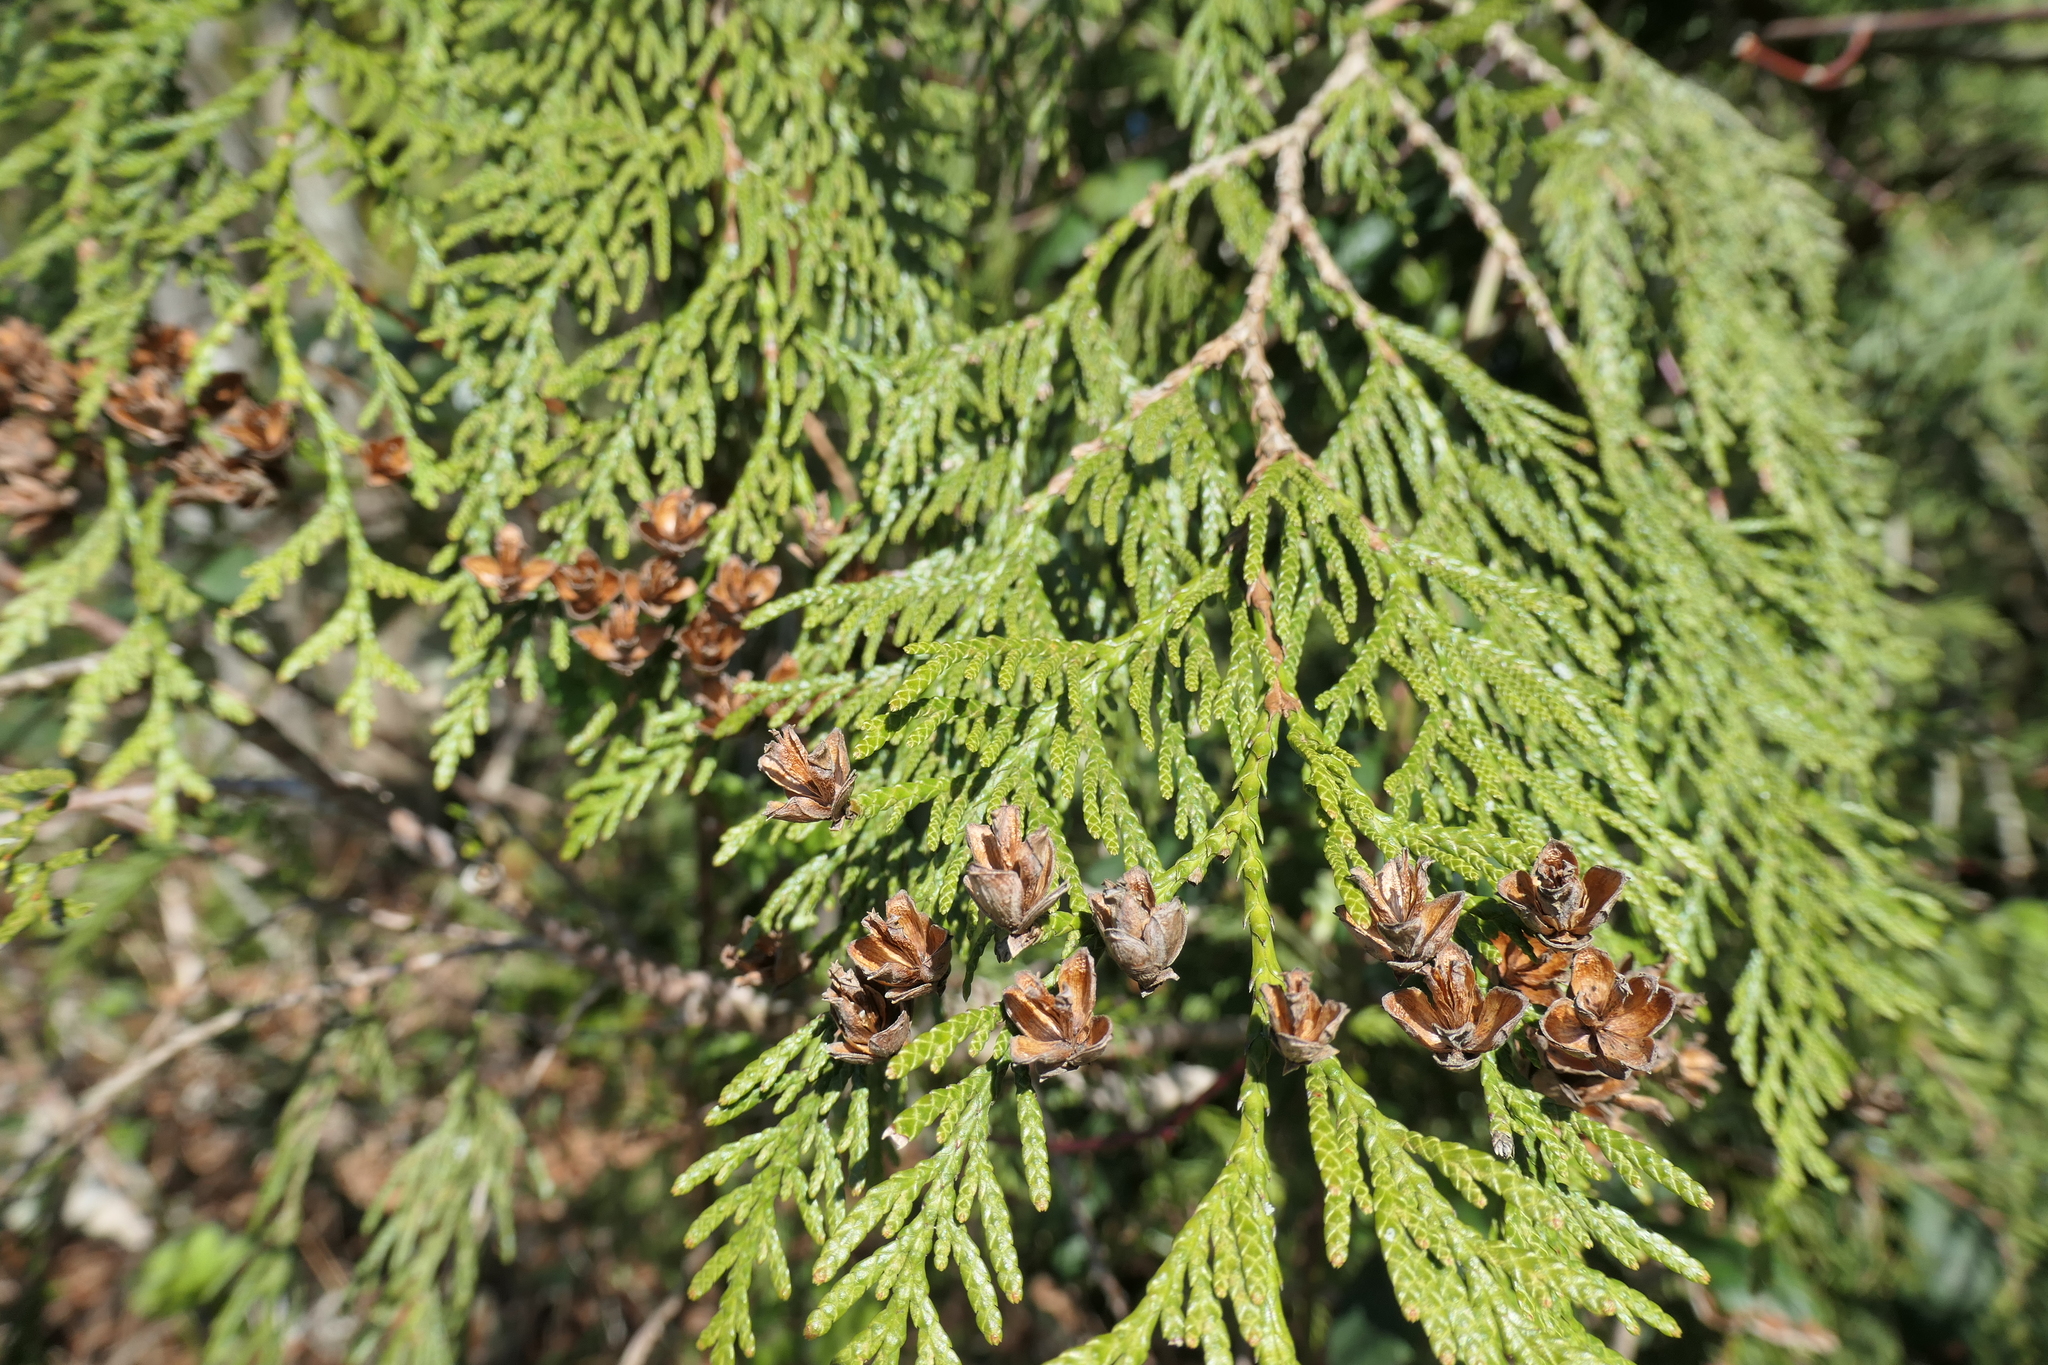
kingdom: Plantae
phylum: Tracheophyta
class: Pinopsida
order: Pinales
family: Cupressaceae
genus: Thuja
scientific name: Thuja plicata
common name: Western red-cedar
